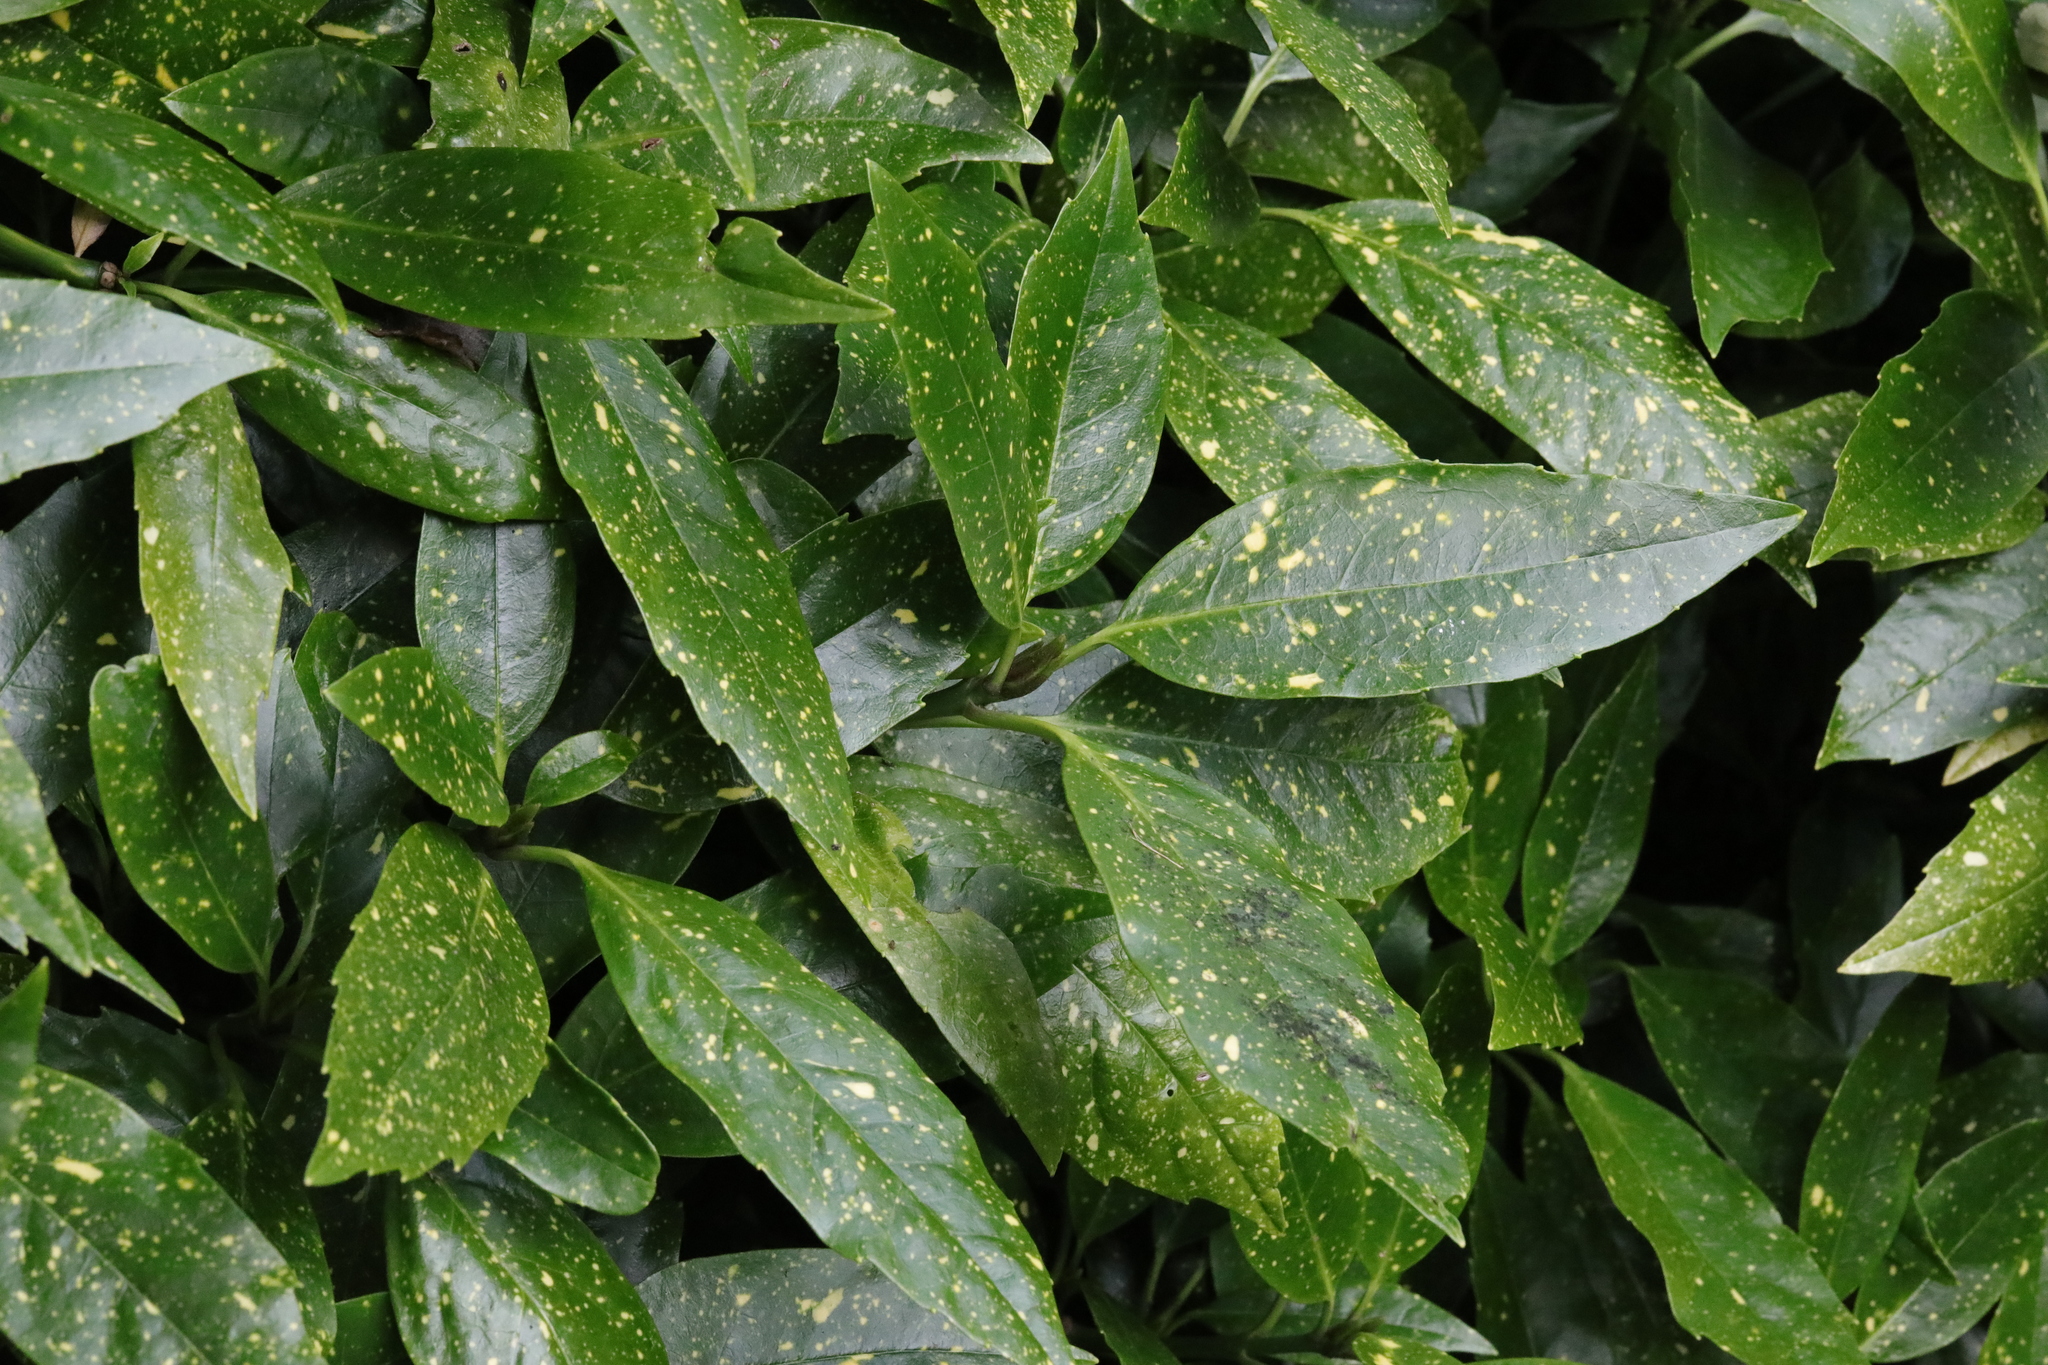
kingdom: Plantae
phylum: Tracheophyta
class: Magnoliopsida
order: Garryales
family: Garryaceae
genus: Aucuba
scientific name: Aucuba japonica
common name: Spotted-laurel
